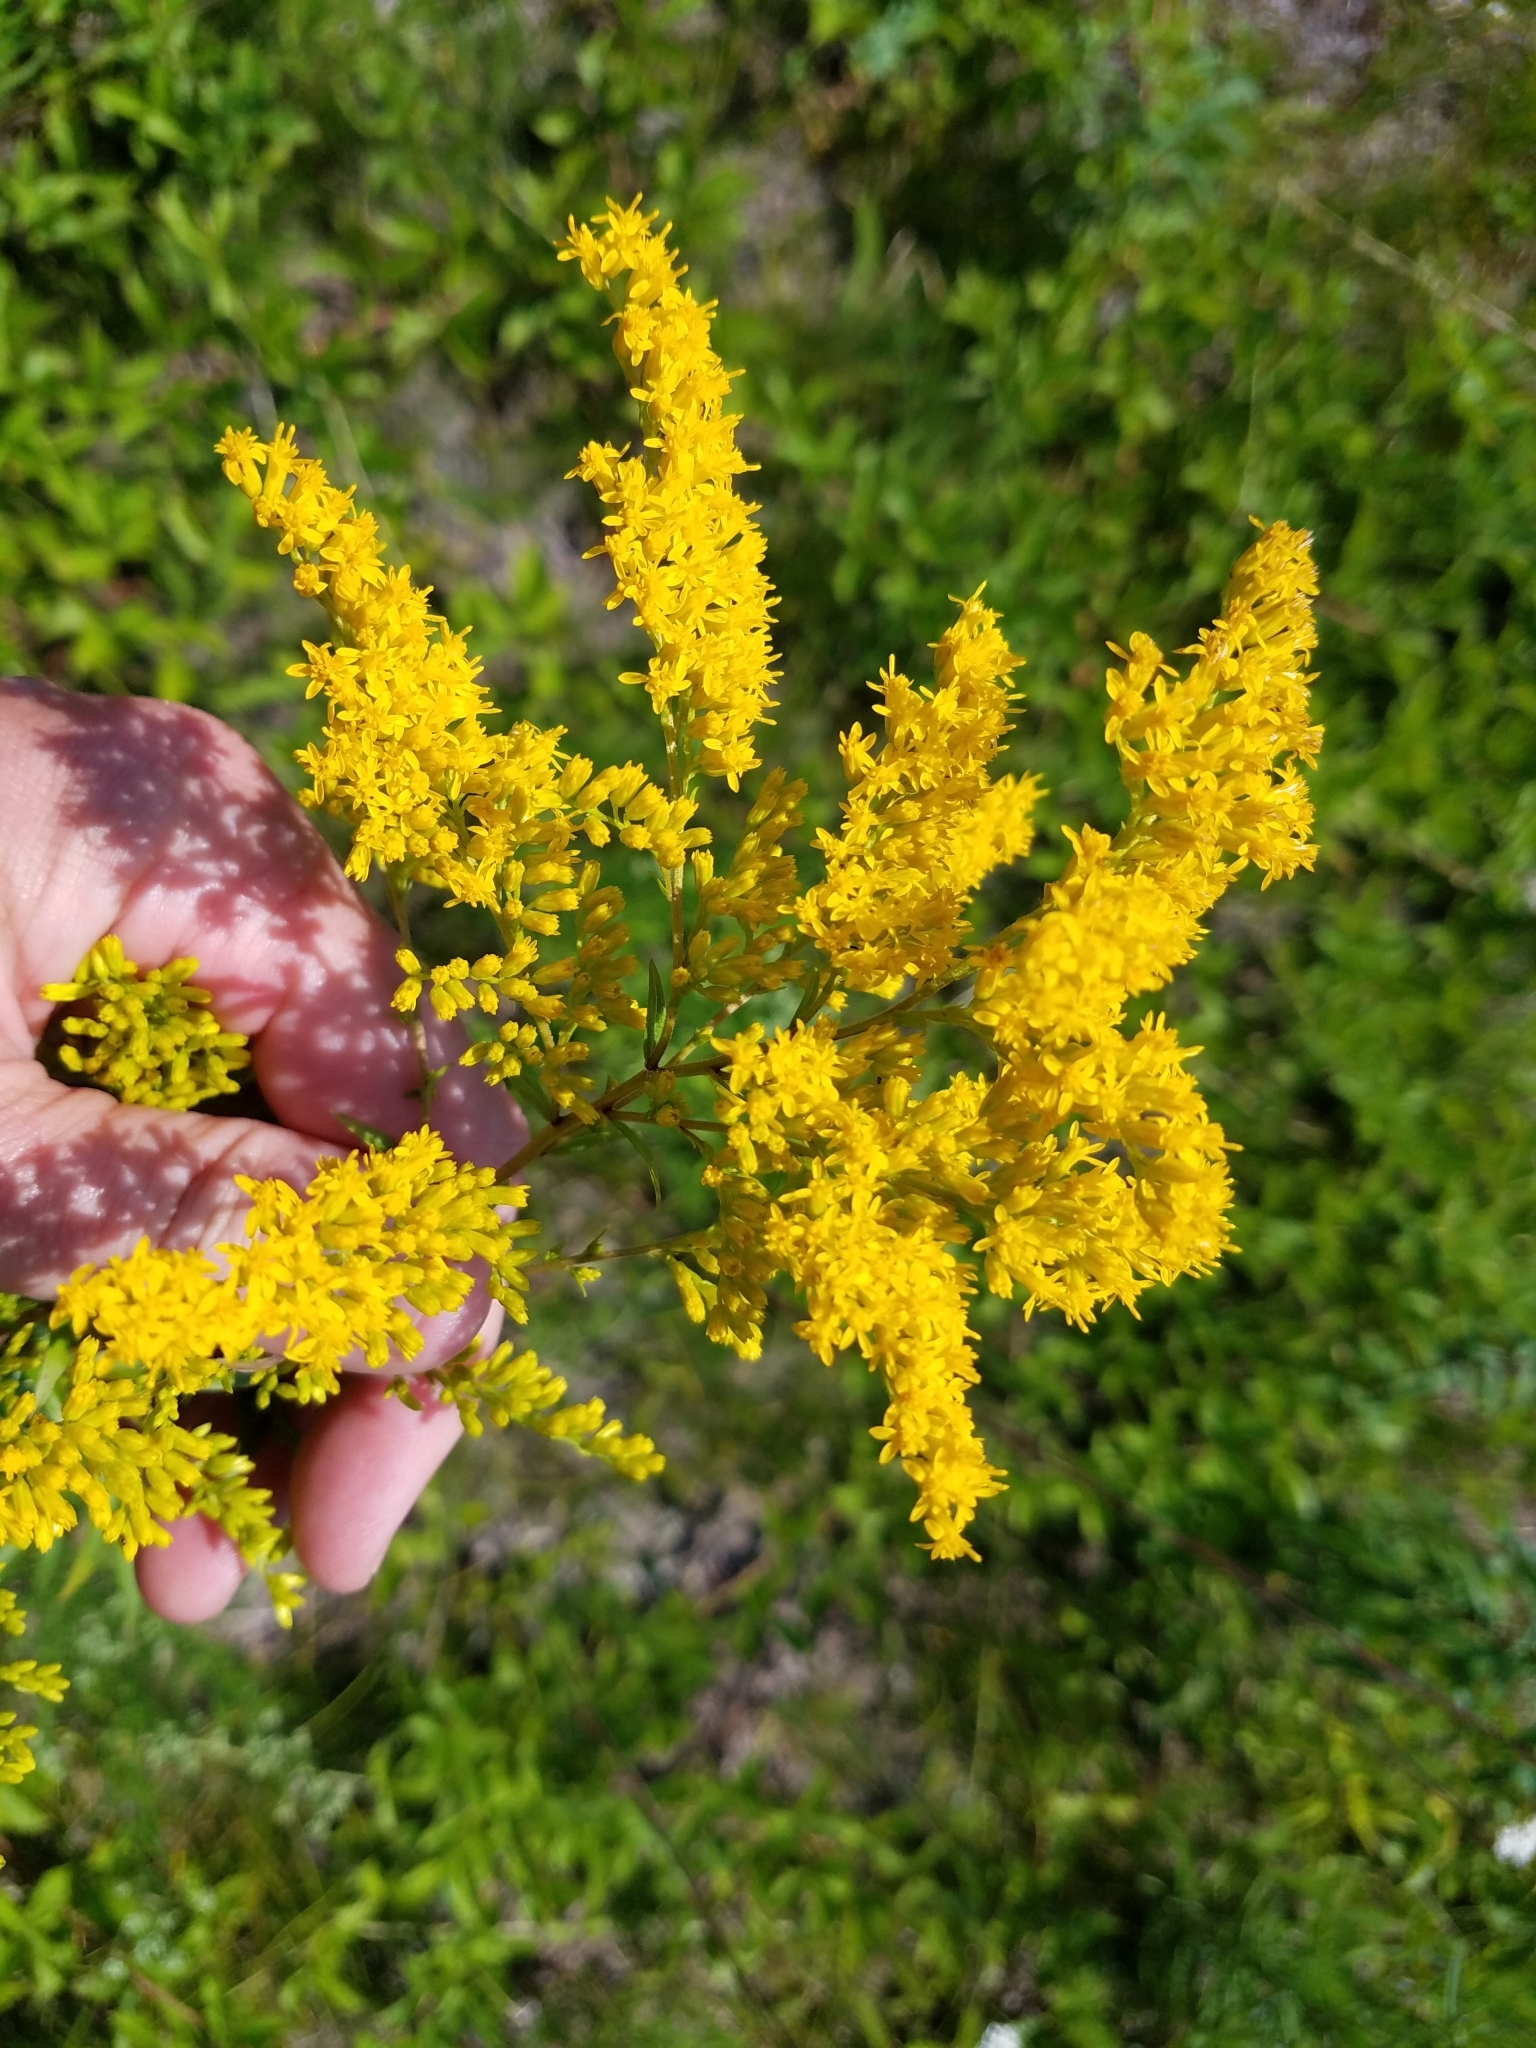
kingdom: Plantae
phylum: Tracheophyta
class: Magnoliopsida
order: Asterales
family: Asteraceae
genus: Solidago
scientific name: Solidago odora
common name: Anise-scented goldenrod
